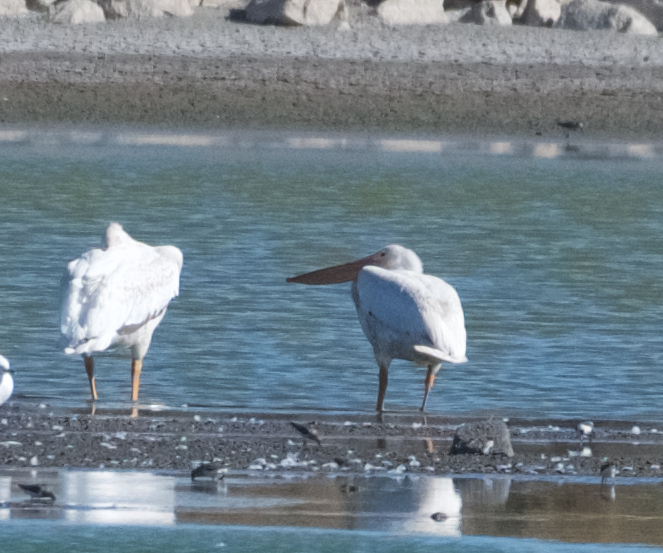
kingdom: Animalia
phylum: Chordata
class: Aves
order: Pelecaniformes
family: Pelecanidae
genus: Pelecanus
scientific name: Pelecanus erythrorhynchos
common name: American white pelican
